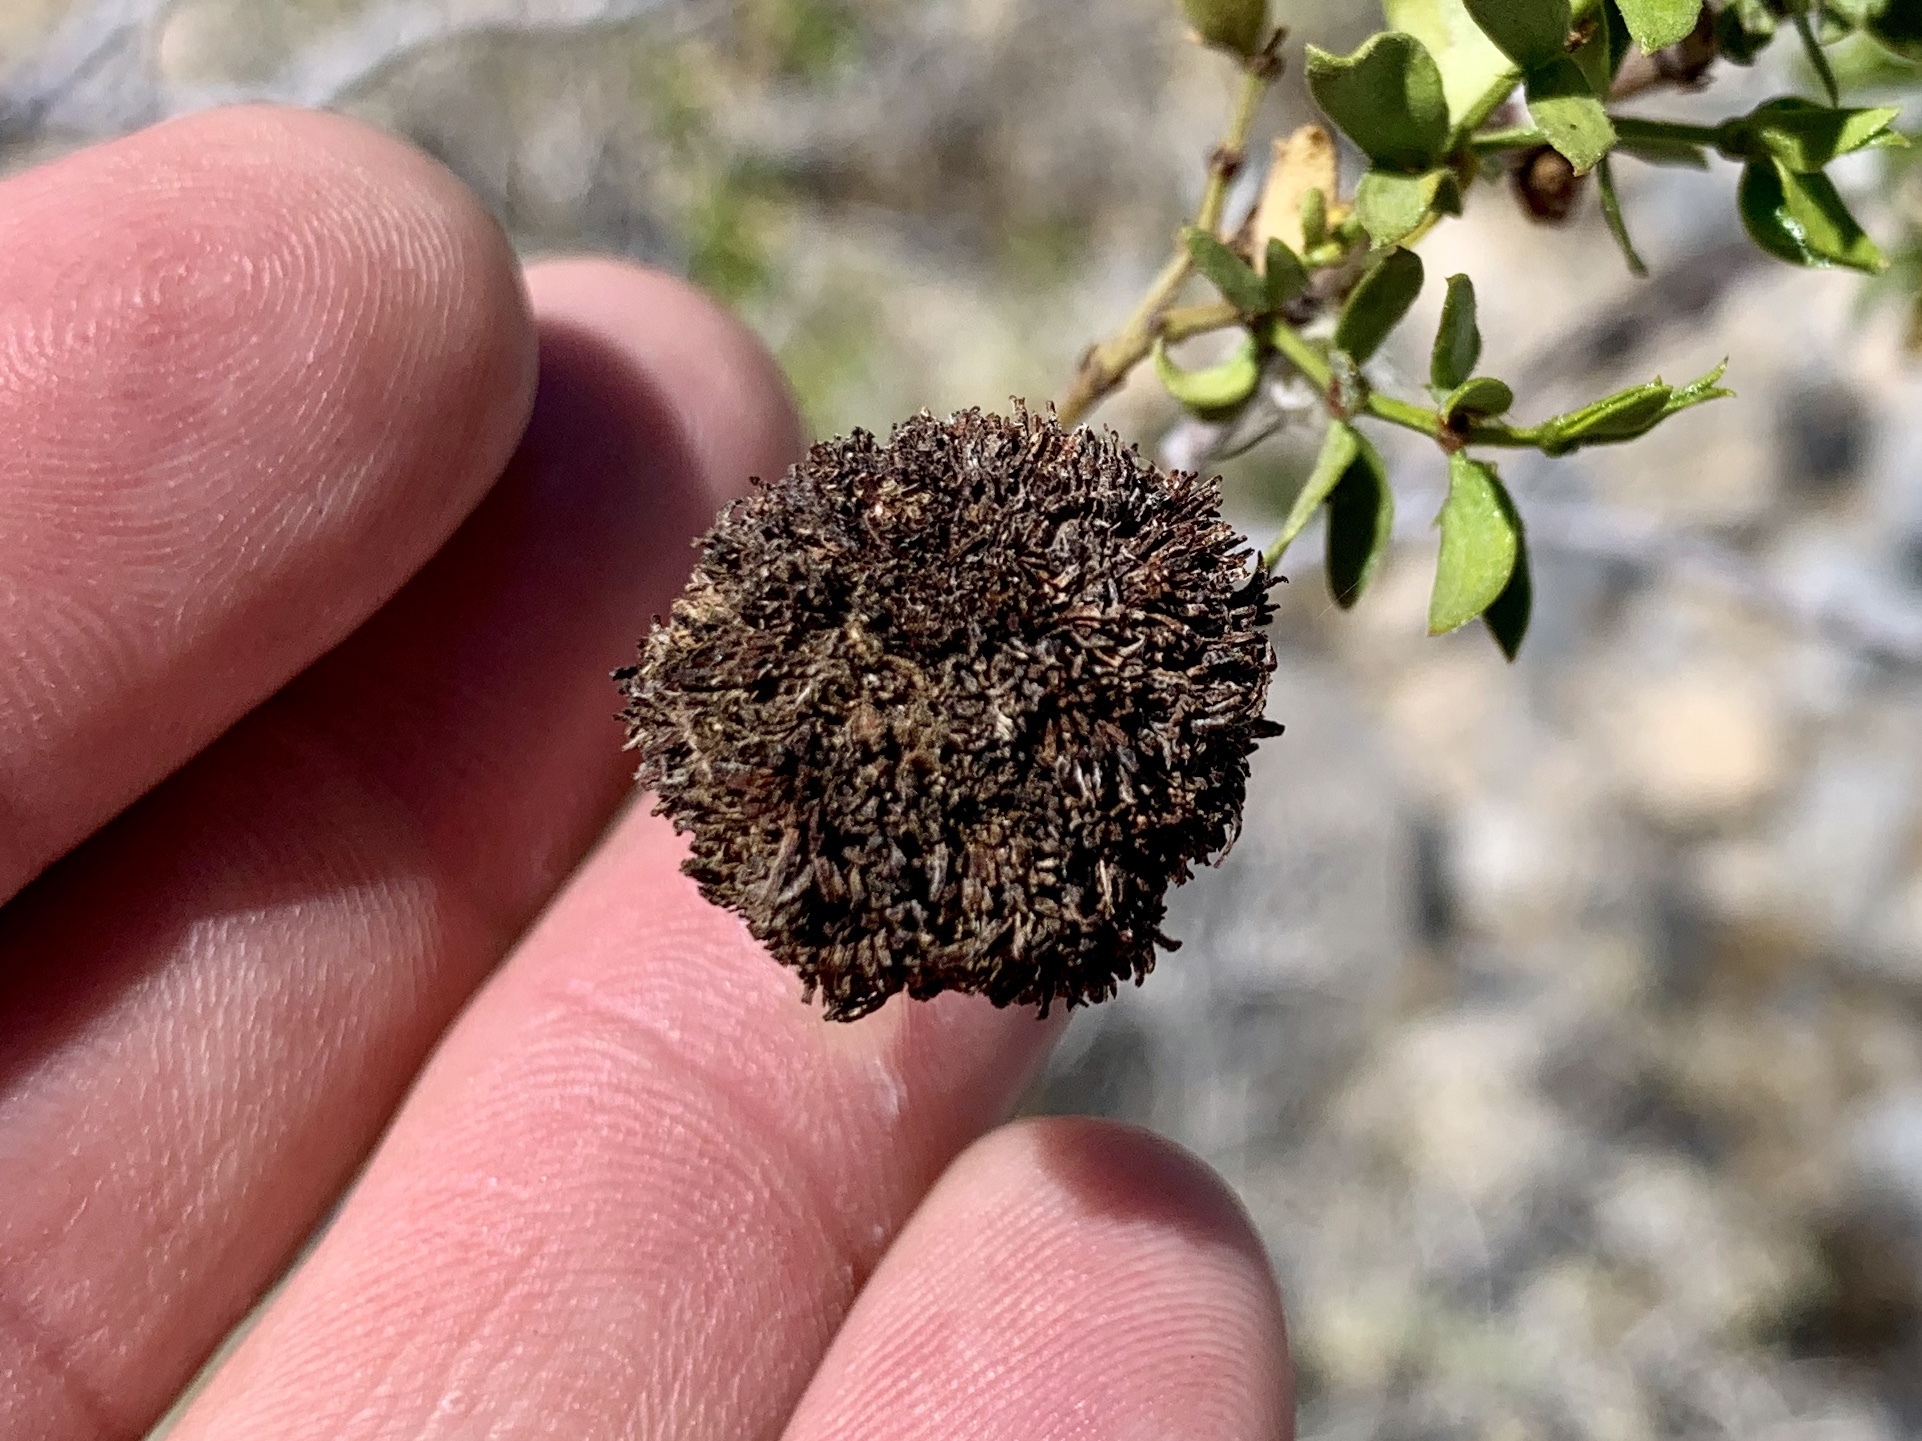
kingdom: Animalia
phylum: Arthropoda
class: Insecta
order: Diptera
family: Cecidomyiidae
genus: Asphondylia
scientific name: Asphondylia auripila
